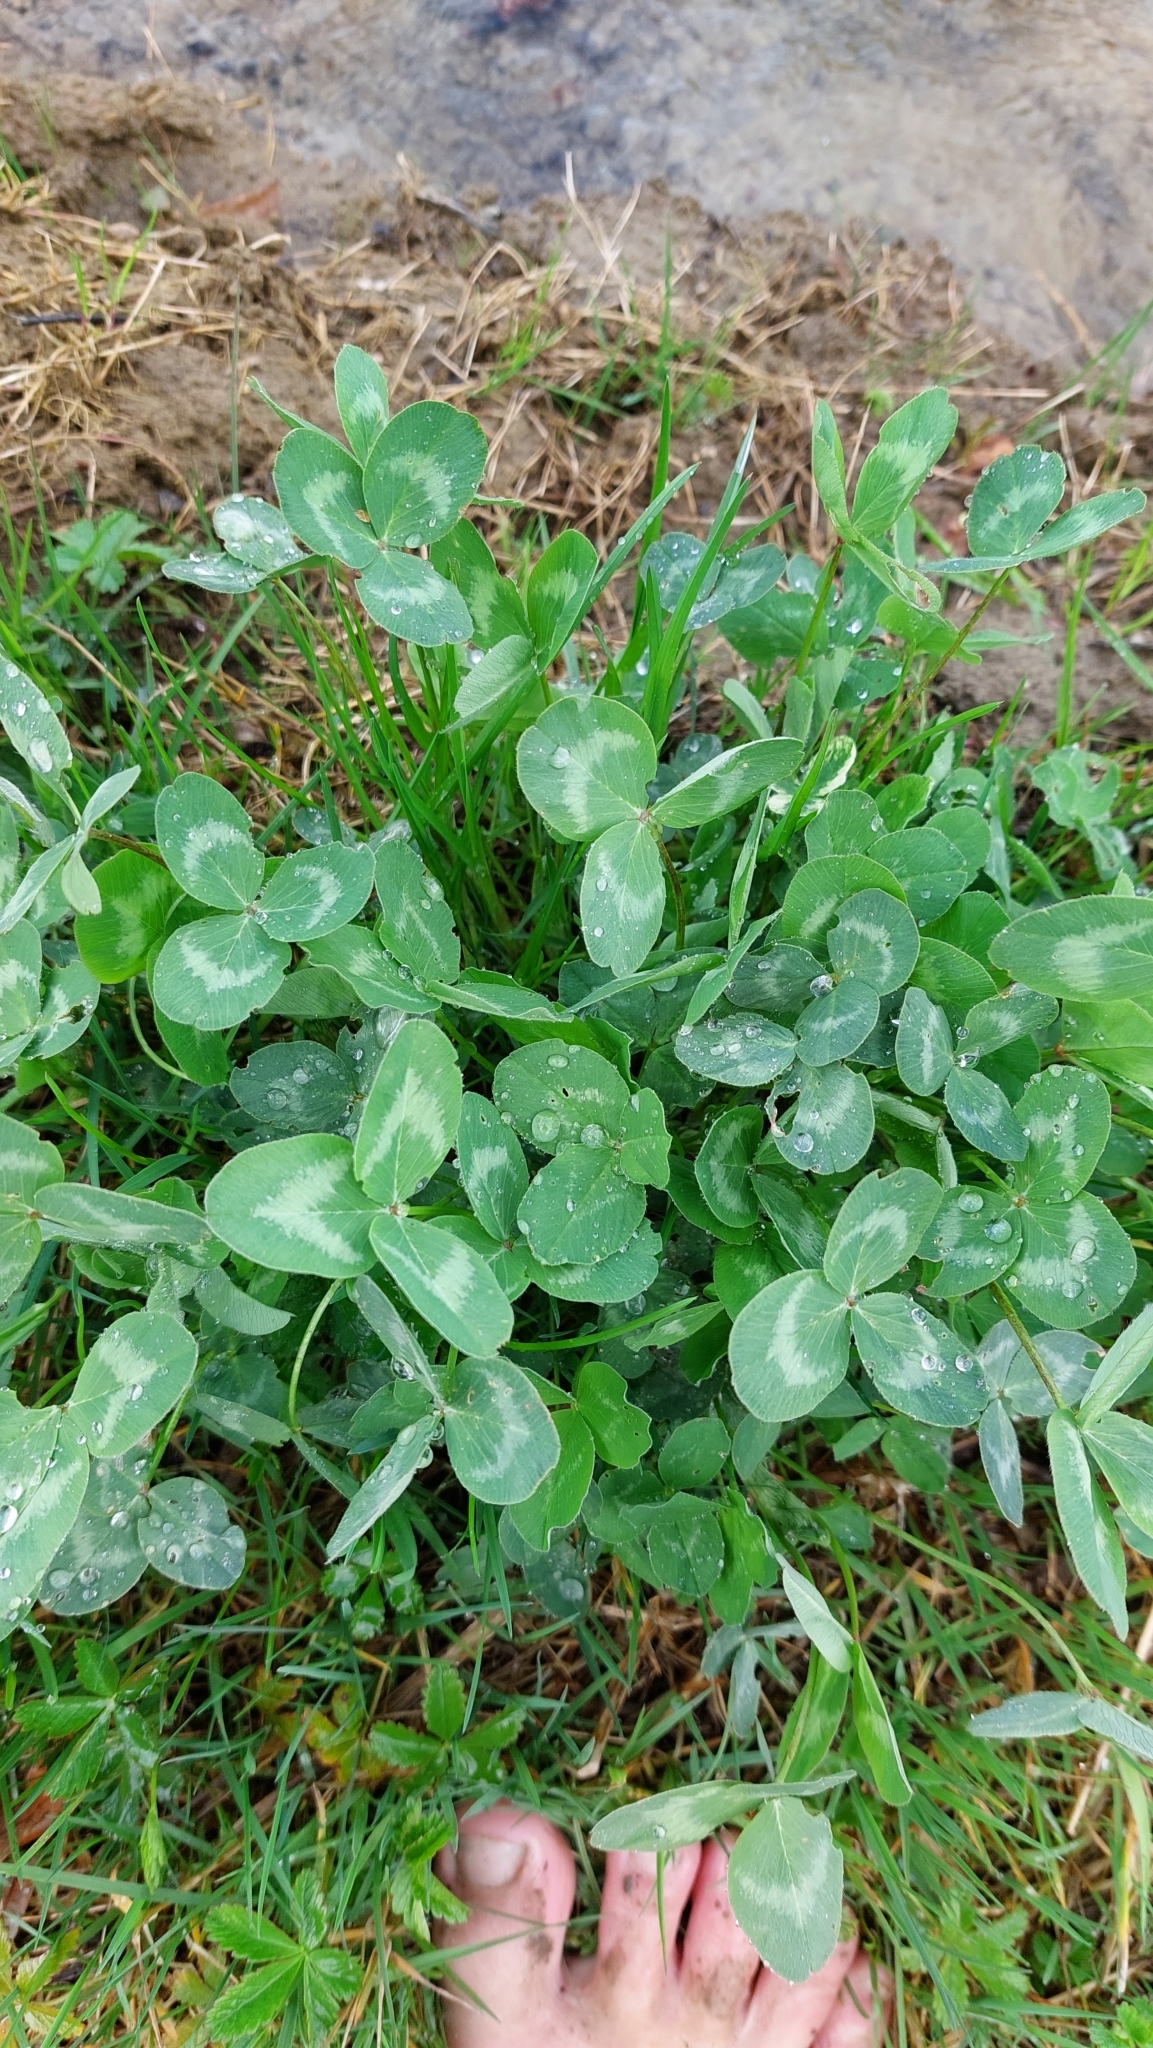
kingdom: Plantae
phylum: Tracheophyta
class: Magnoliopsida
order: Fabales
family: Fabaceae
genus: Trifolium
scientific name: Trifolium pratense
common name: Red clover
